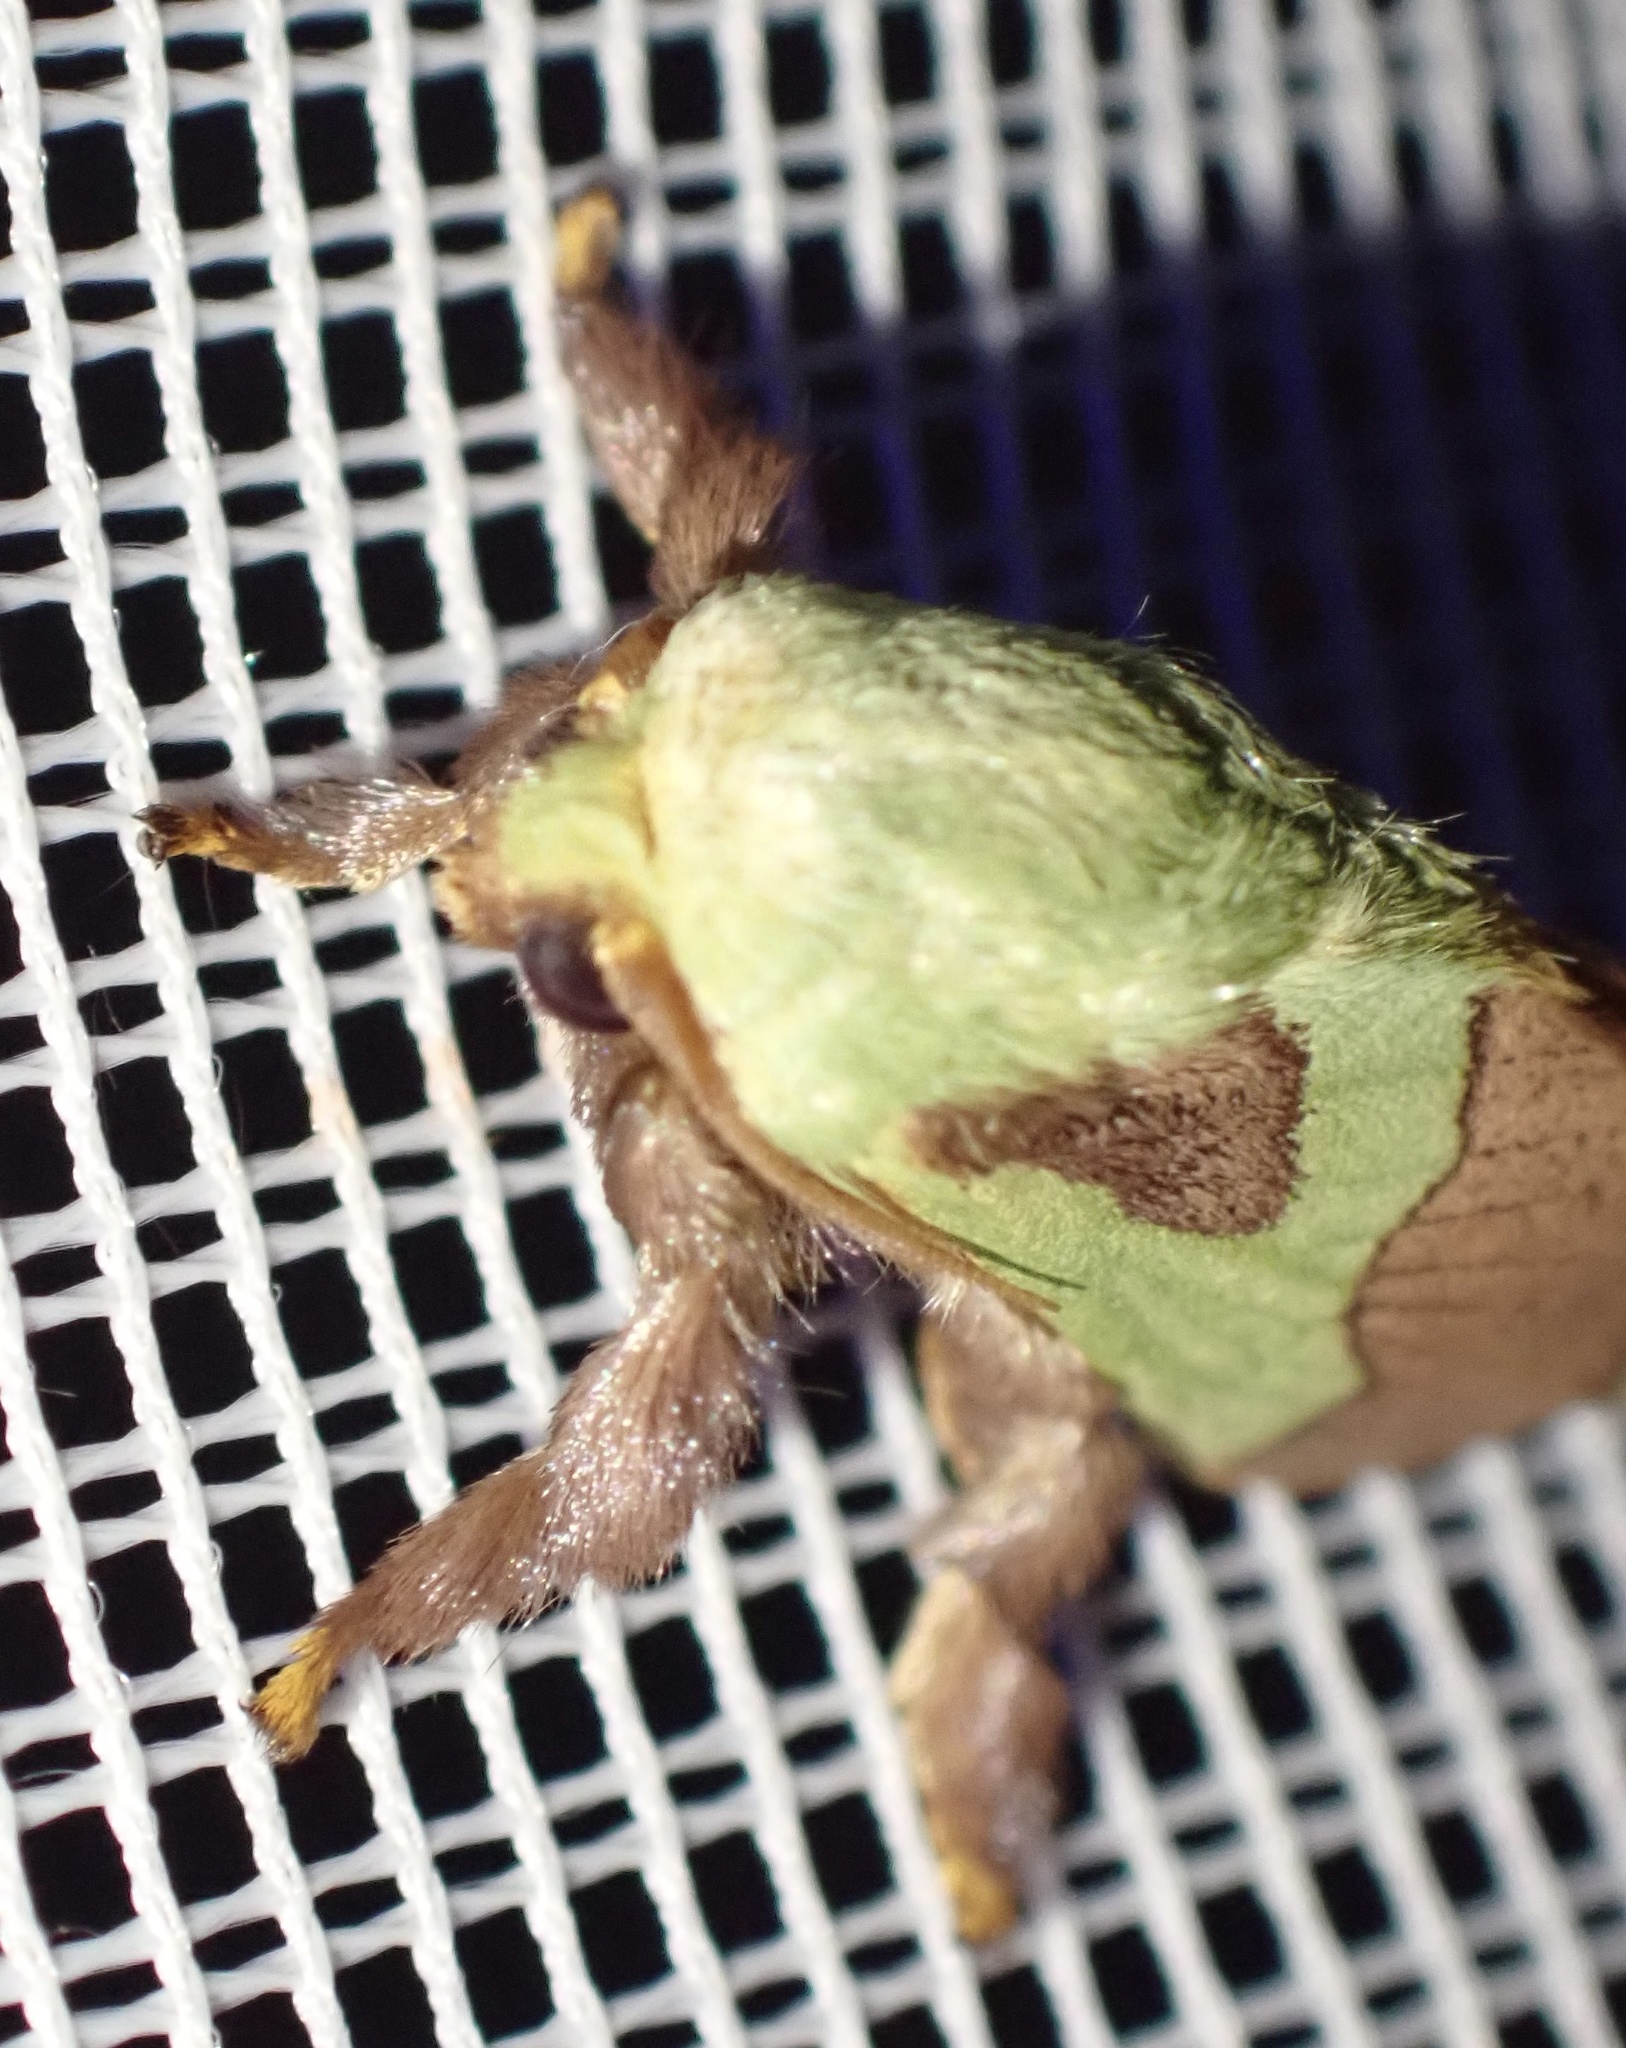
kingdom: Animalia
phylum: Arthropoda
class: Insecta
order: Lepidoptera
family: Limacodidae
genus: Parasa
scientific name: Parasa latistriga
